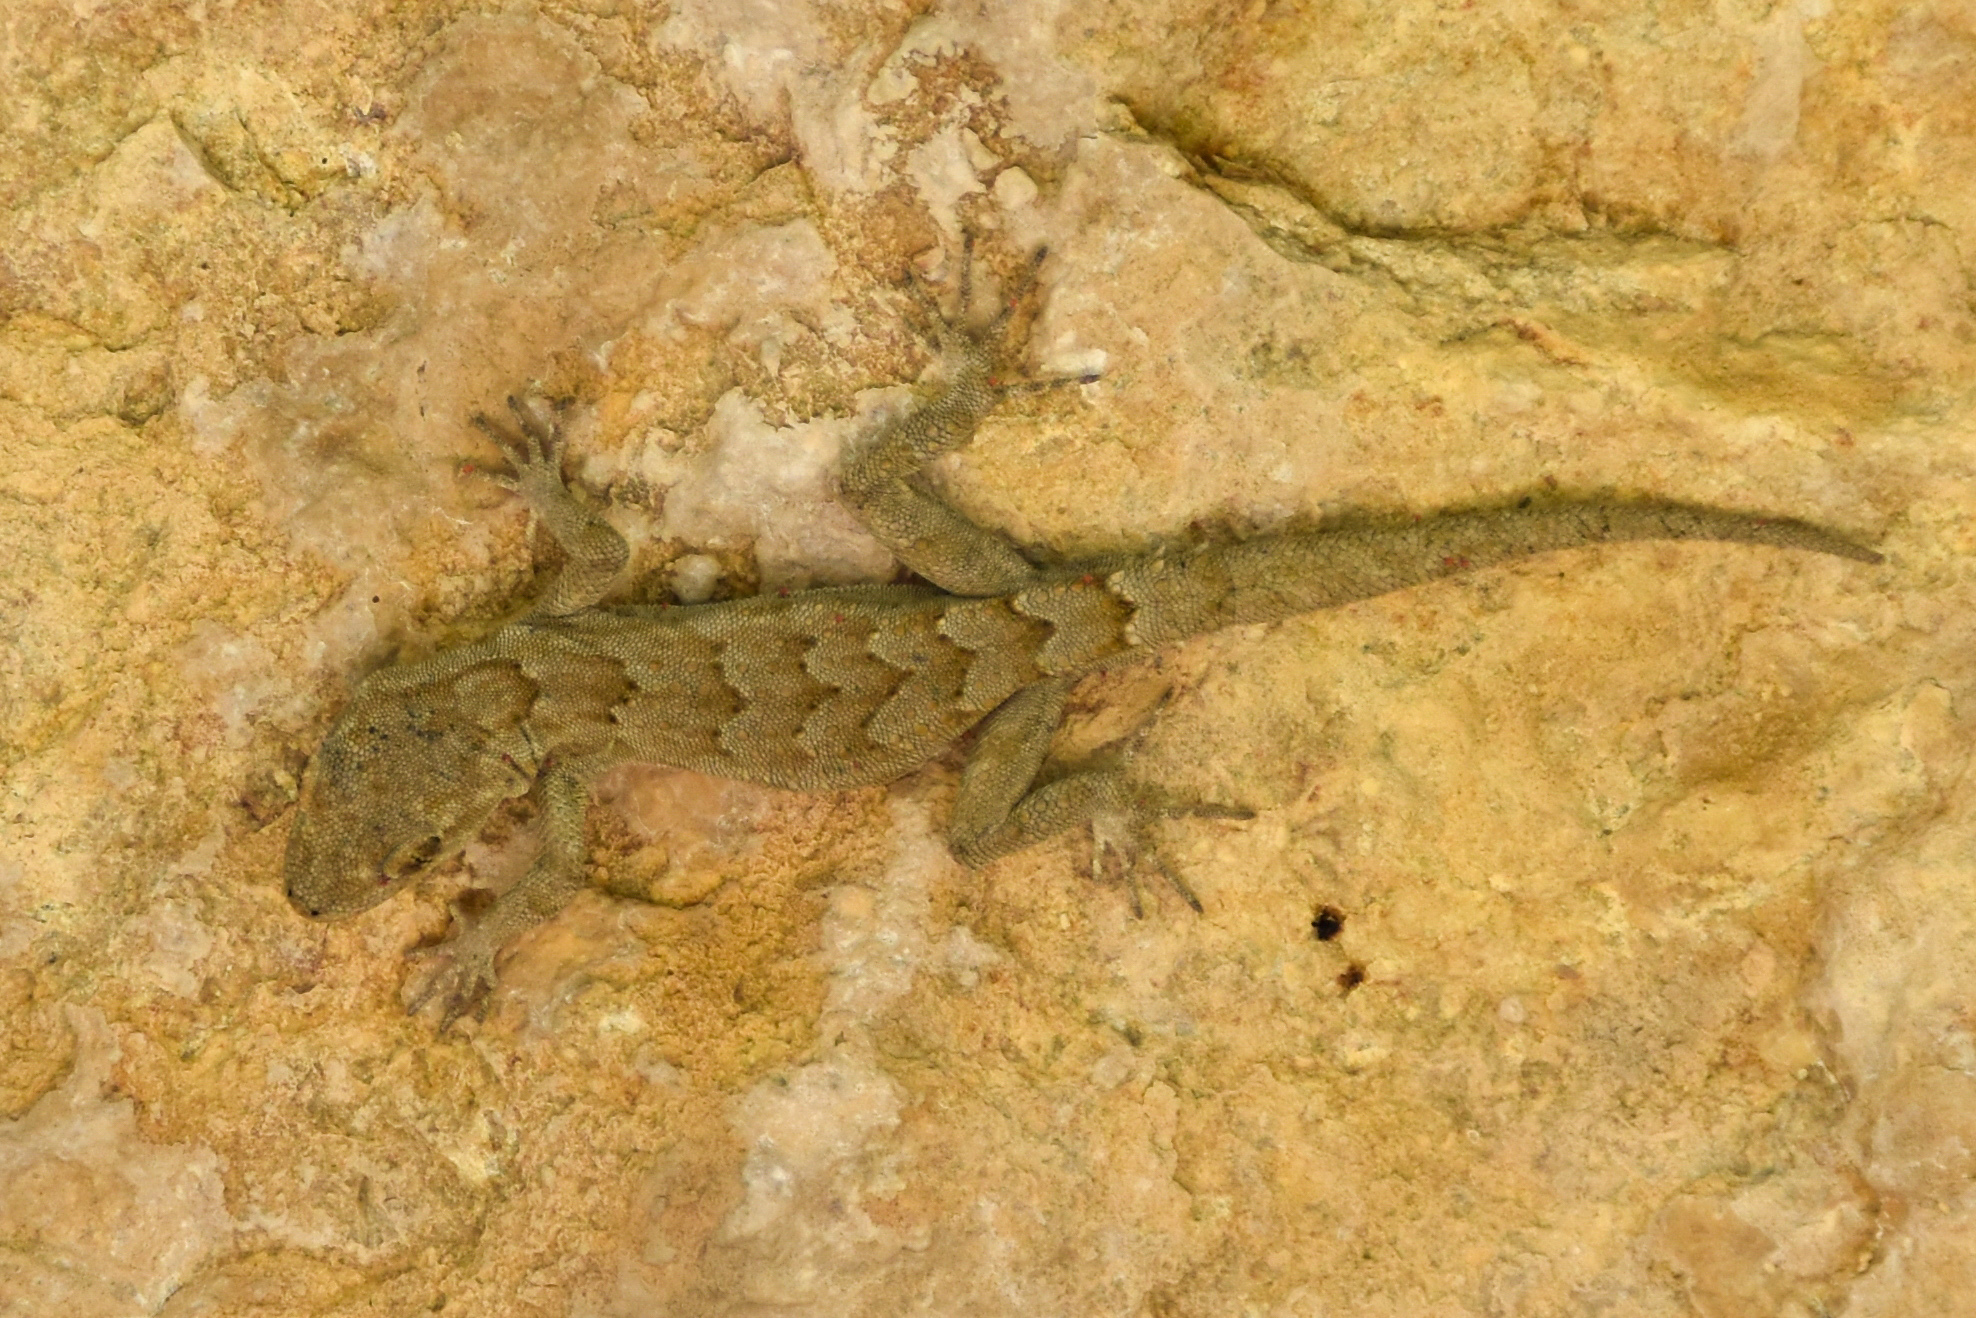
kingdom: Animalia
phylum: Chordata
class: Squamata
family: Gekkonidae
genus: Mediodactylus
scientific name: Mediodactylus orientalis
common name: Mediterranean thin-toed gecko
